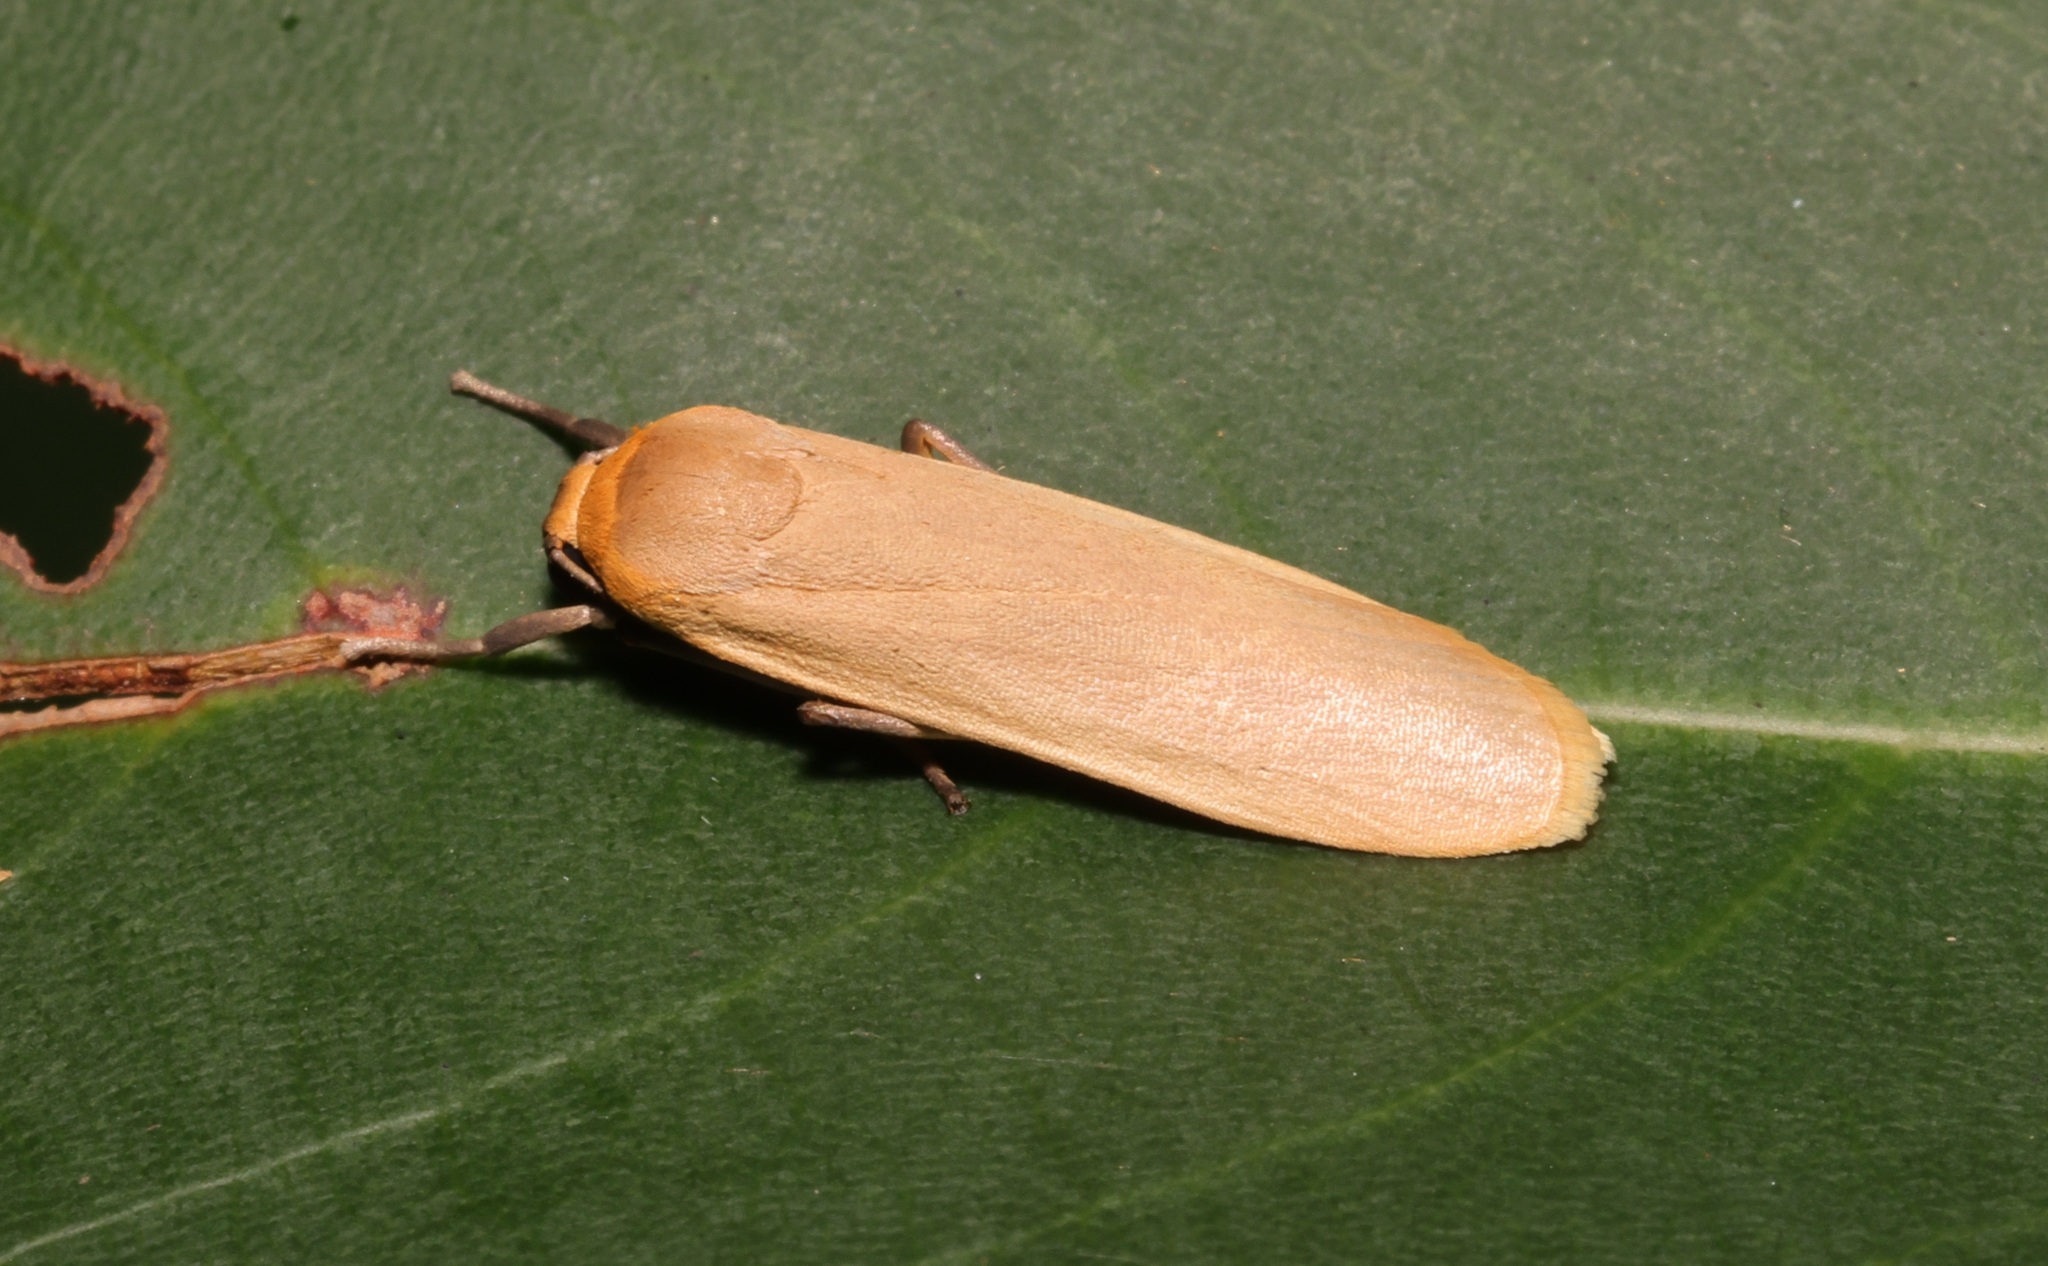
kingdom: Animalia
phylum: Arthropoda
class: Insecta
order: Lepidoptera
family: Erebidae
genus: Brunia
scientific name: Brunia antica
